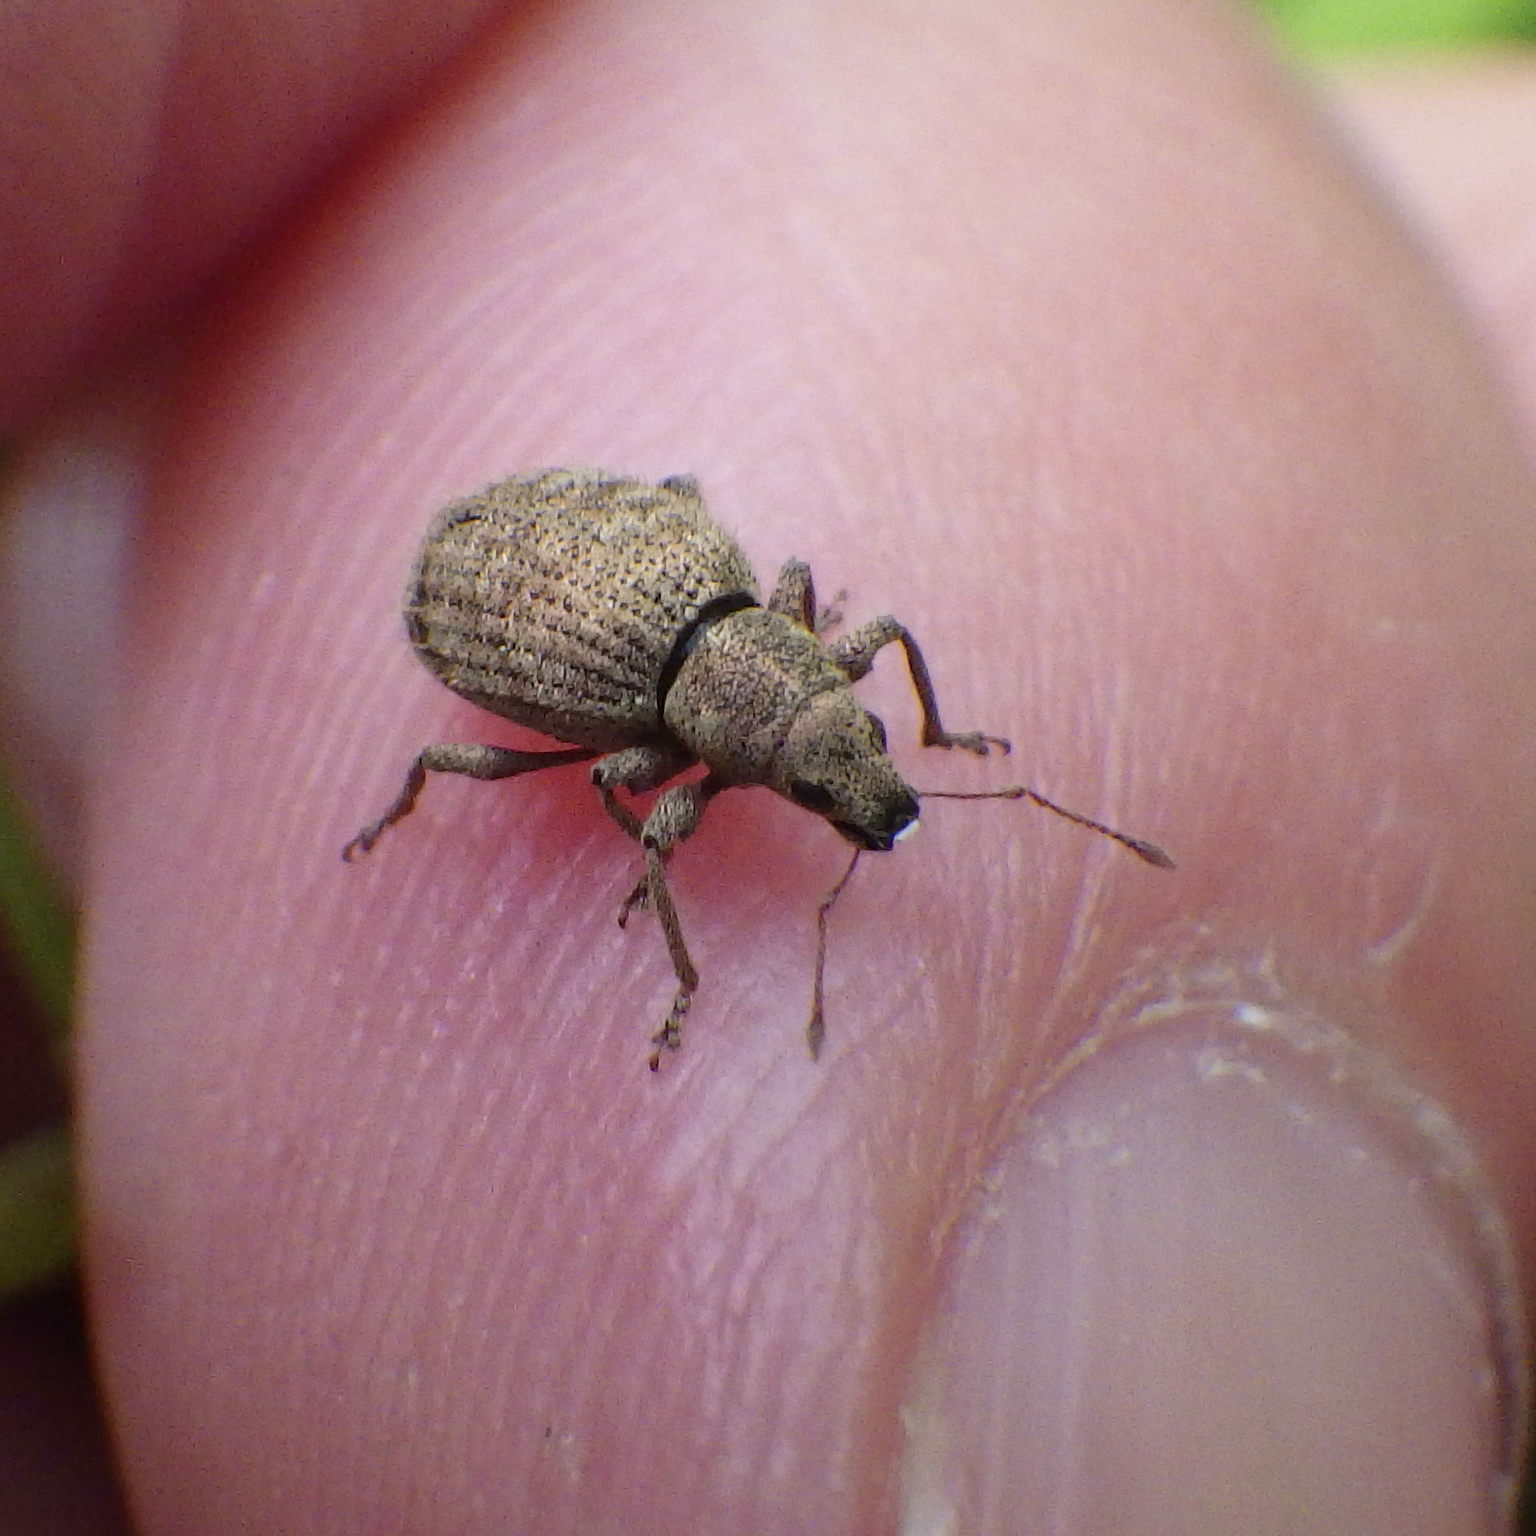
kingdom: Animalia
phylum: Arthropoda
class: Insecta
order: Coleoptera
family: Curculionidae
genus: Sciaphilus
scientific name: Sciaphilus asperatus
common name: Weevil
